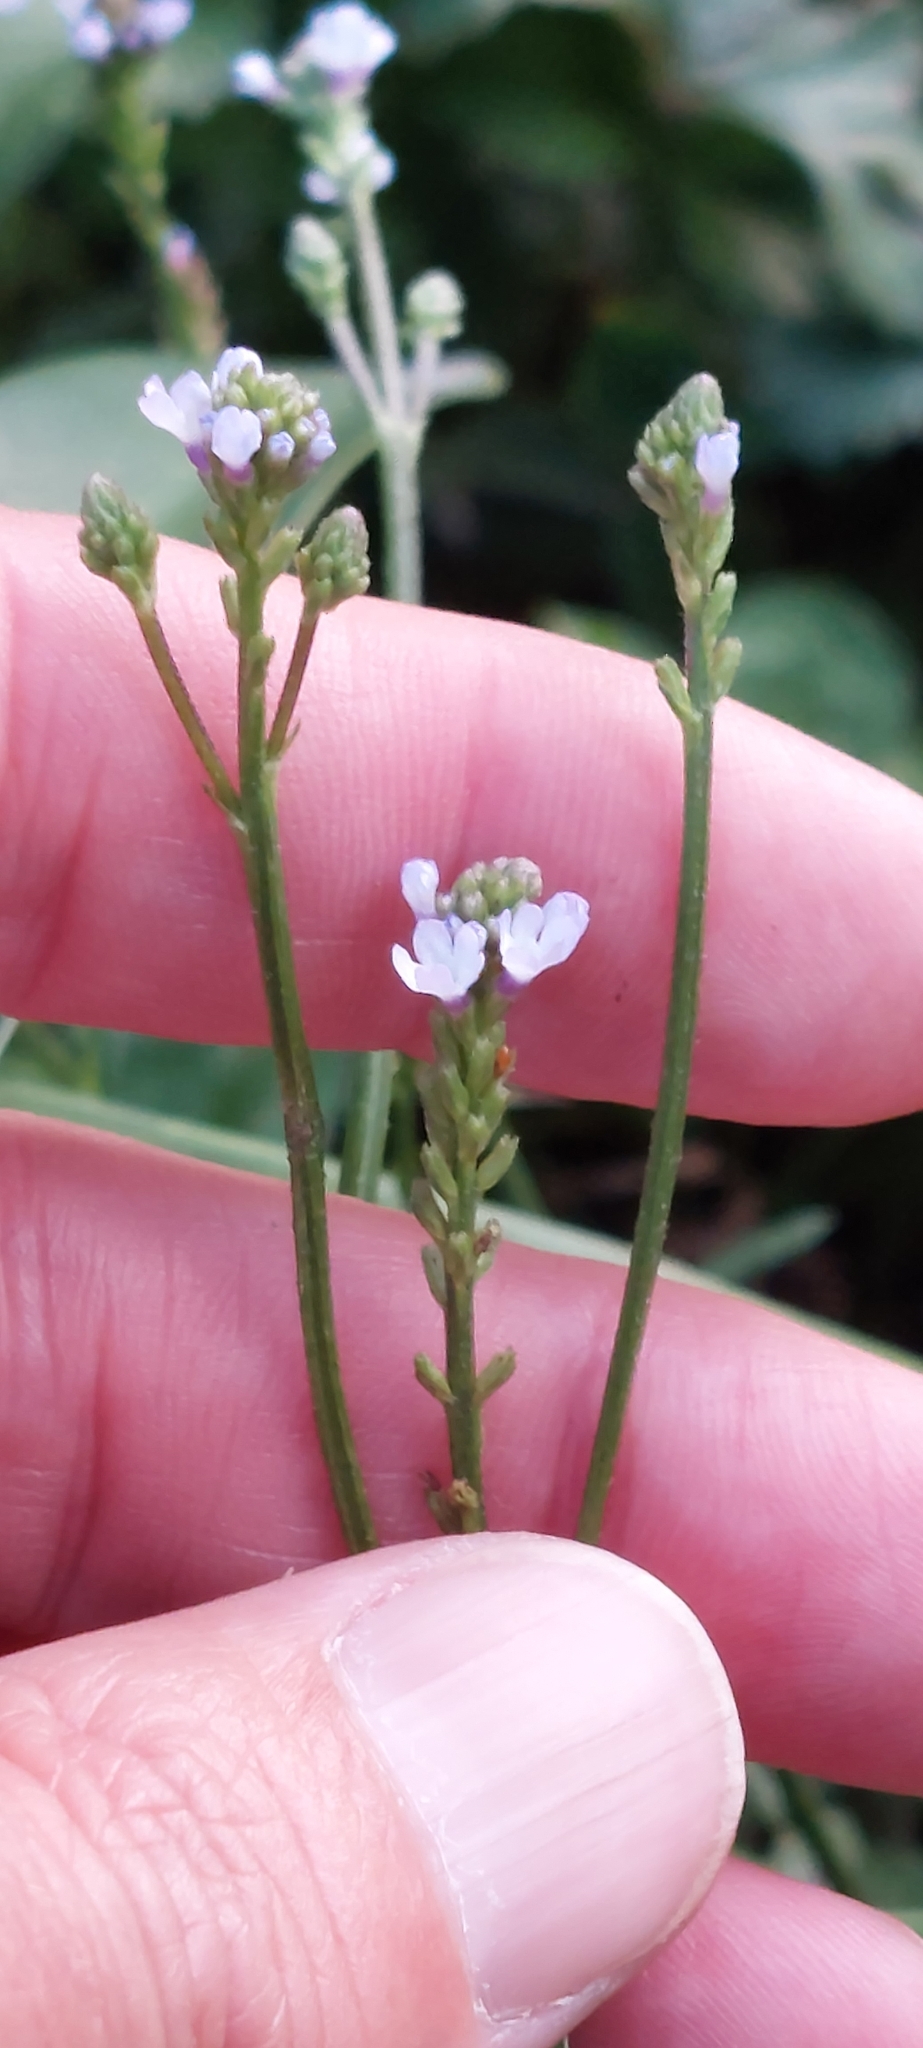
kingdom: Plantae
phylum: Tracheophyta
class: Magnoliopsida
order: Lamiales
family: Verbenaceae
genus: Verbena
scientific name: Verbena litoralis
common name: Seashore vervain
